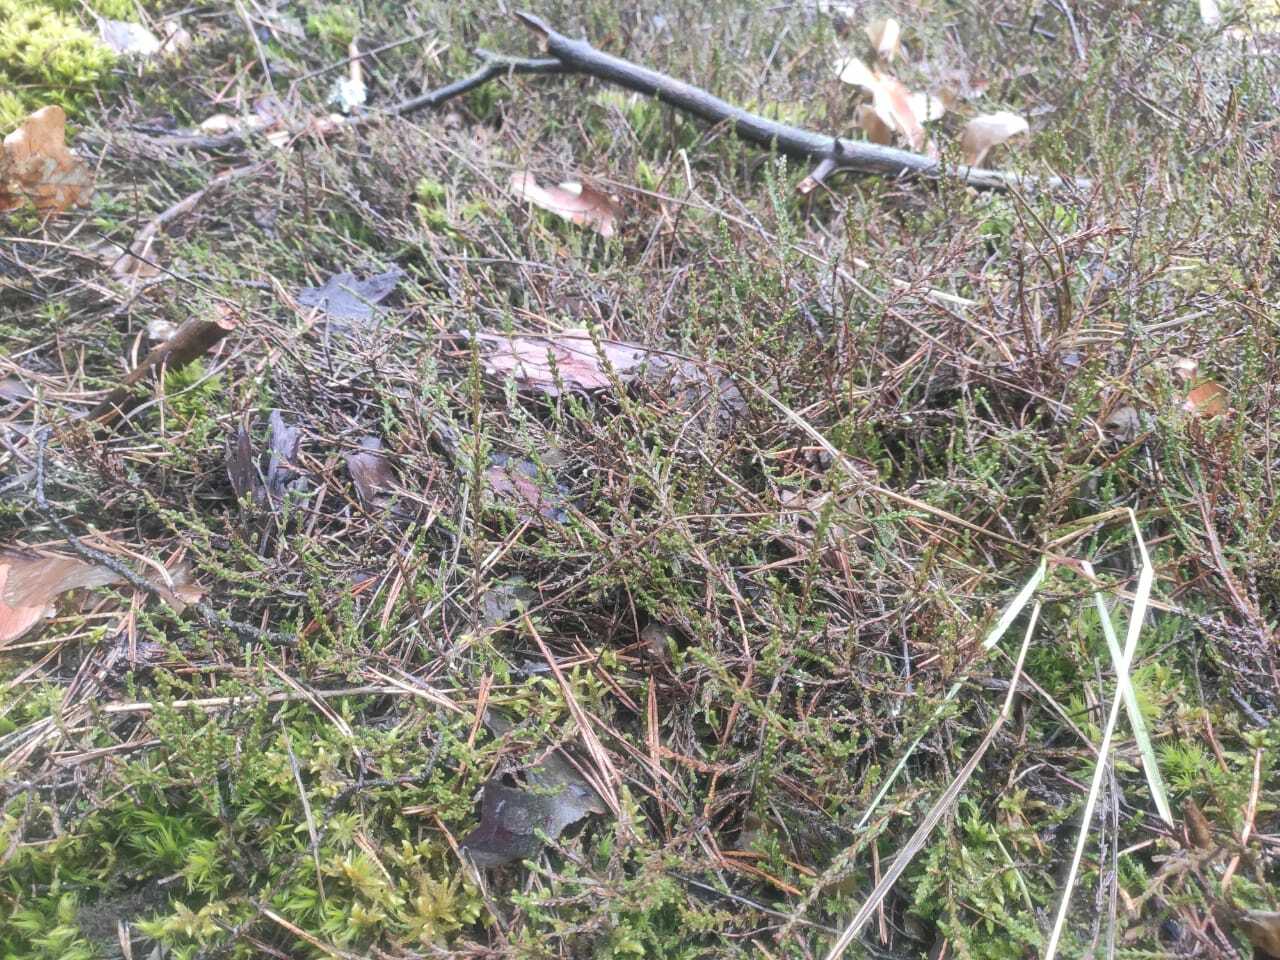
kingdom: Plantae
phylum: Tracheophyta
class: Magnoliopsida
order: Ericales
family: Ericaceae
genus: Calluna
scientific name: Calluna vulgaris
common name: Heather
